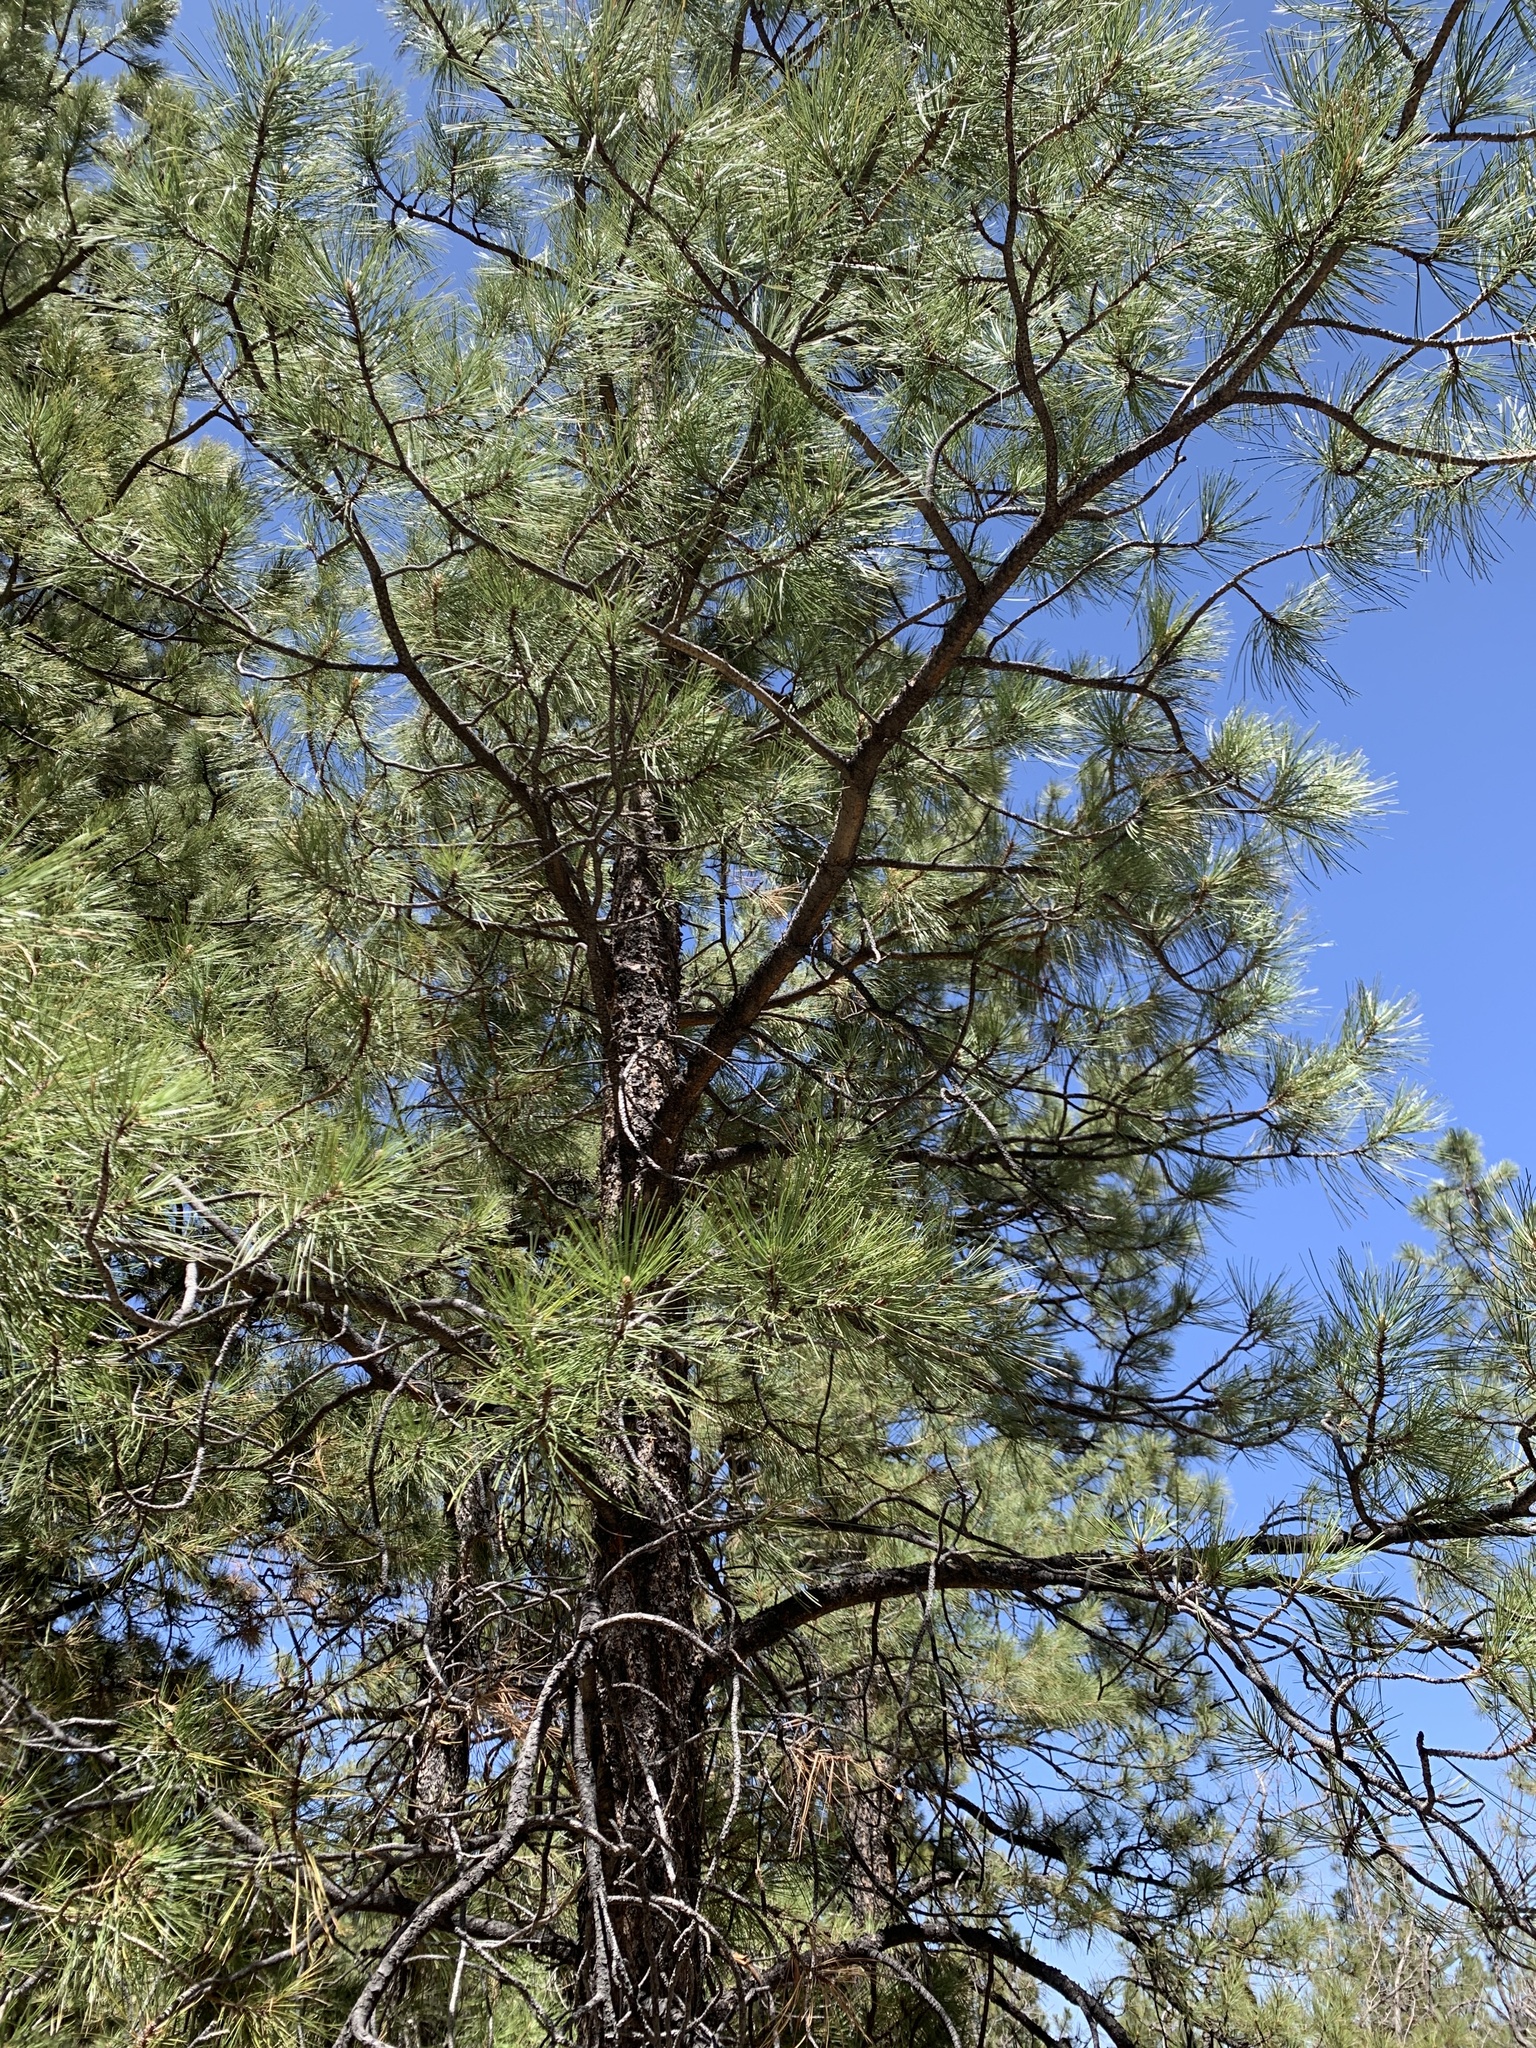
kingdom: Plantae
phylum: Tracheophyta
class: Pinopsida
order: Pinales
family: Pinaceae
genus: Pinus
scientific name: Pinus ponderosa
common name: Western yellow-pine
